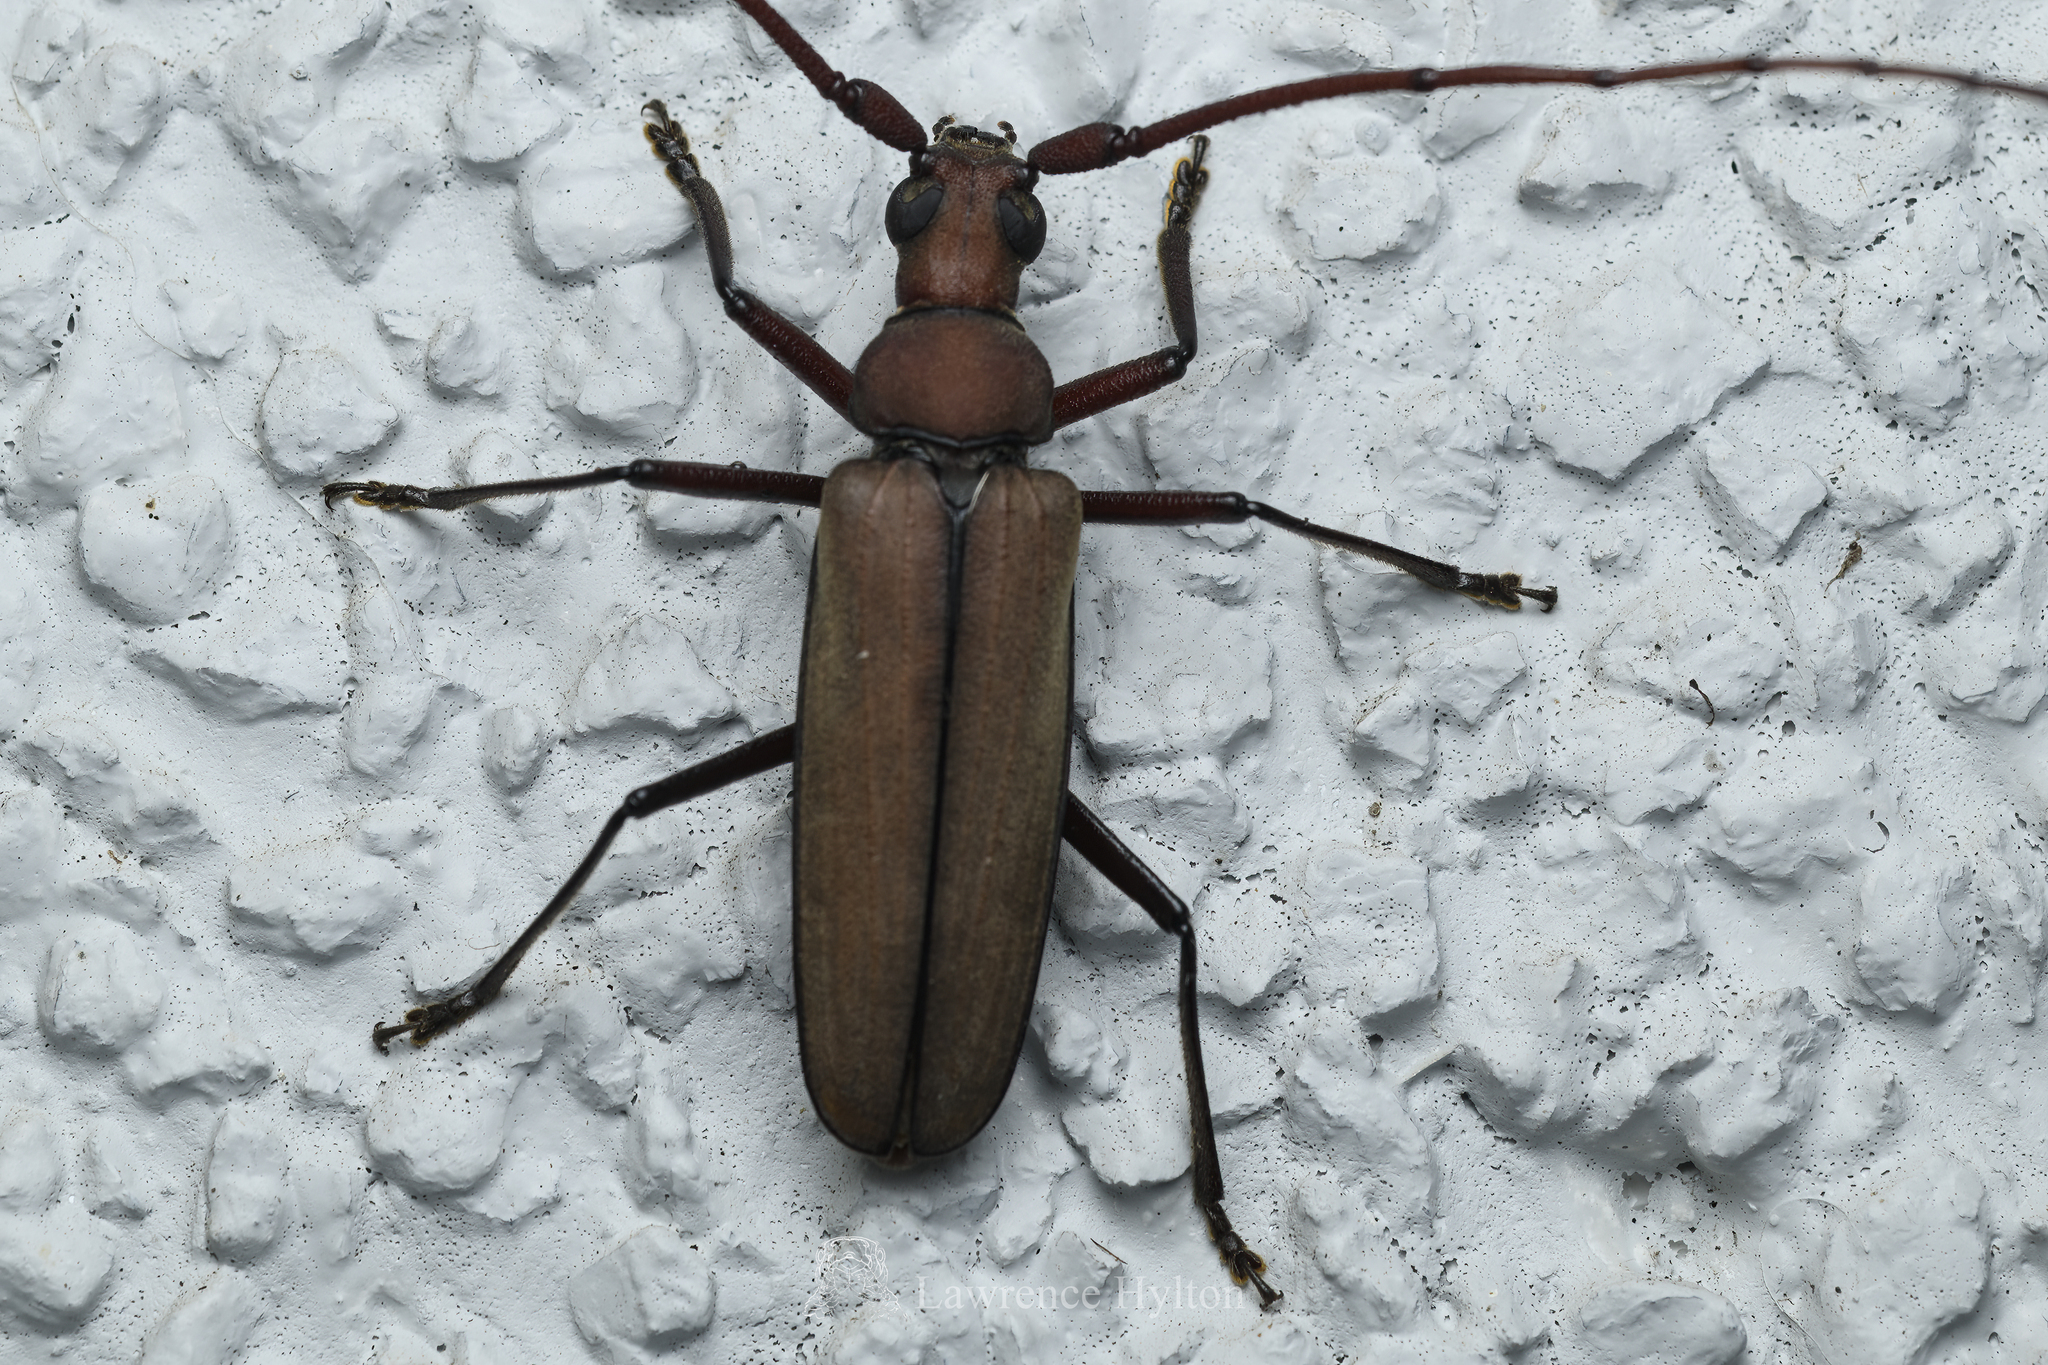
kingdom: Animalia
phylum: Arthropoda
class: Insecta
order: Coleoptera
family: Cerambycidae
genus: Aegolipton
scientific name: Aegolipton marginale
